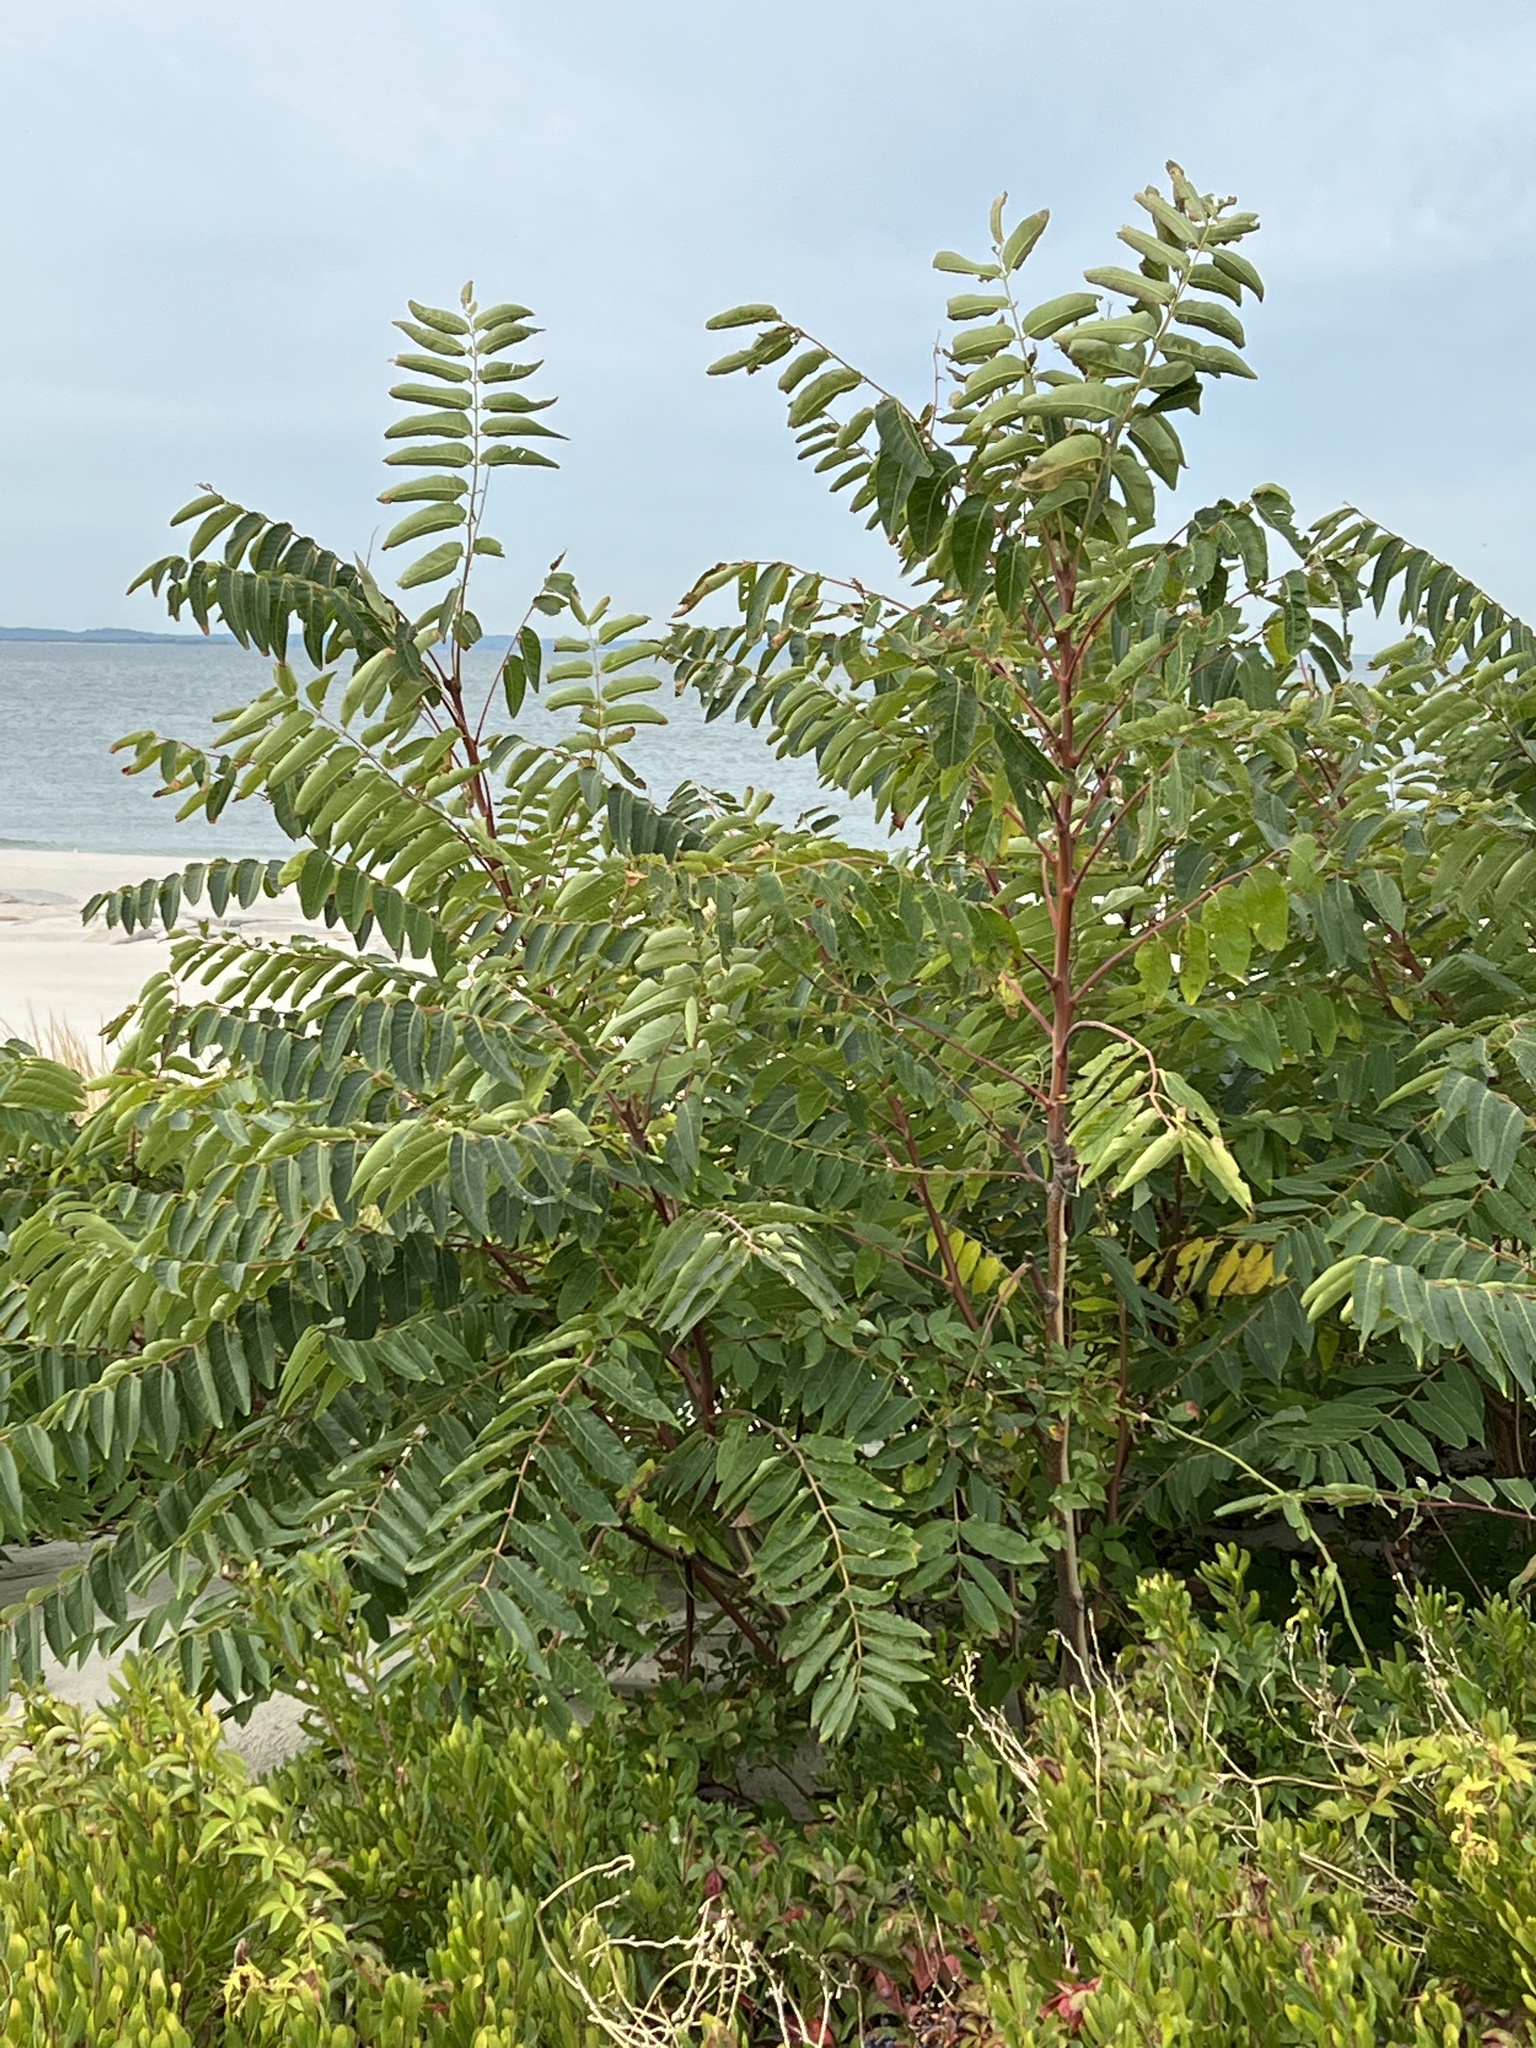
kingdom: Plantae
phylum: Tracheophyta
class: Magnoliopsida
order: Sapindales
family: Simaroubaceae
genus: Ailanthus
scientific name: Ailanthus altissima
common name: Tree-of-heaven
